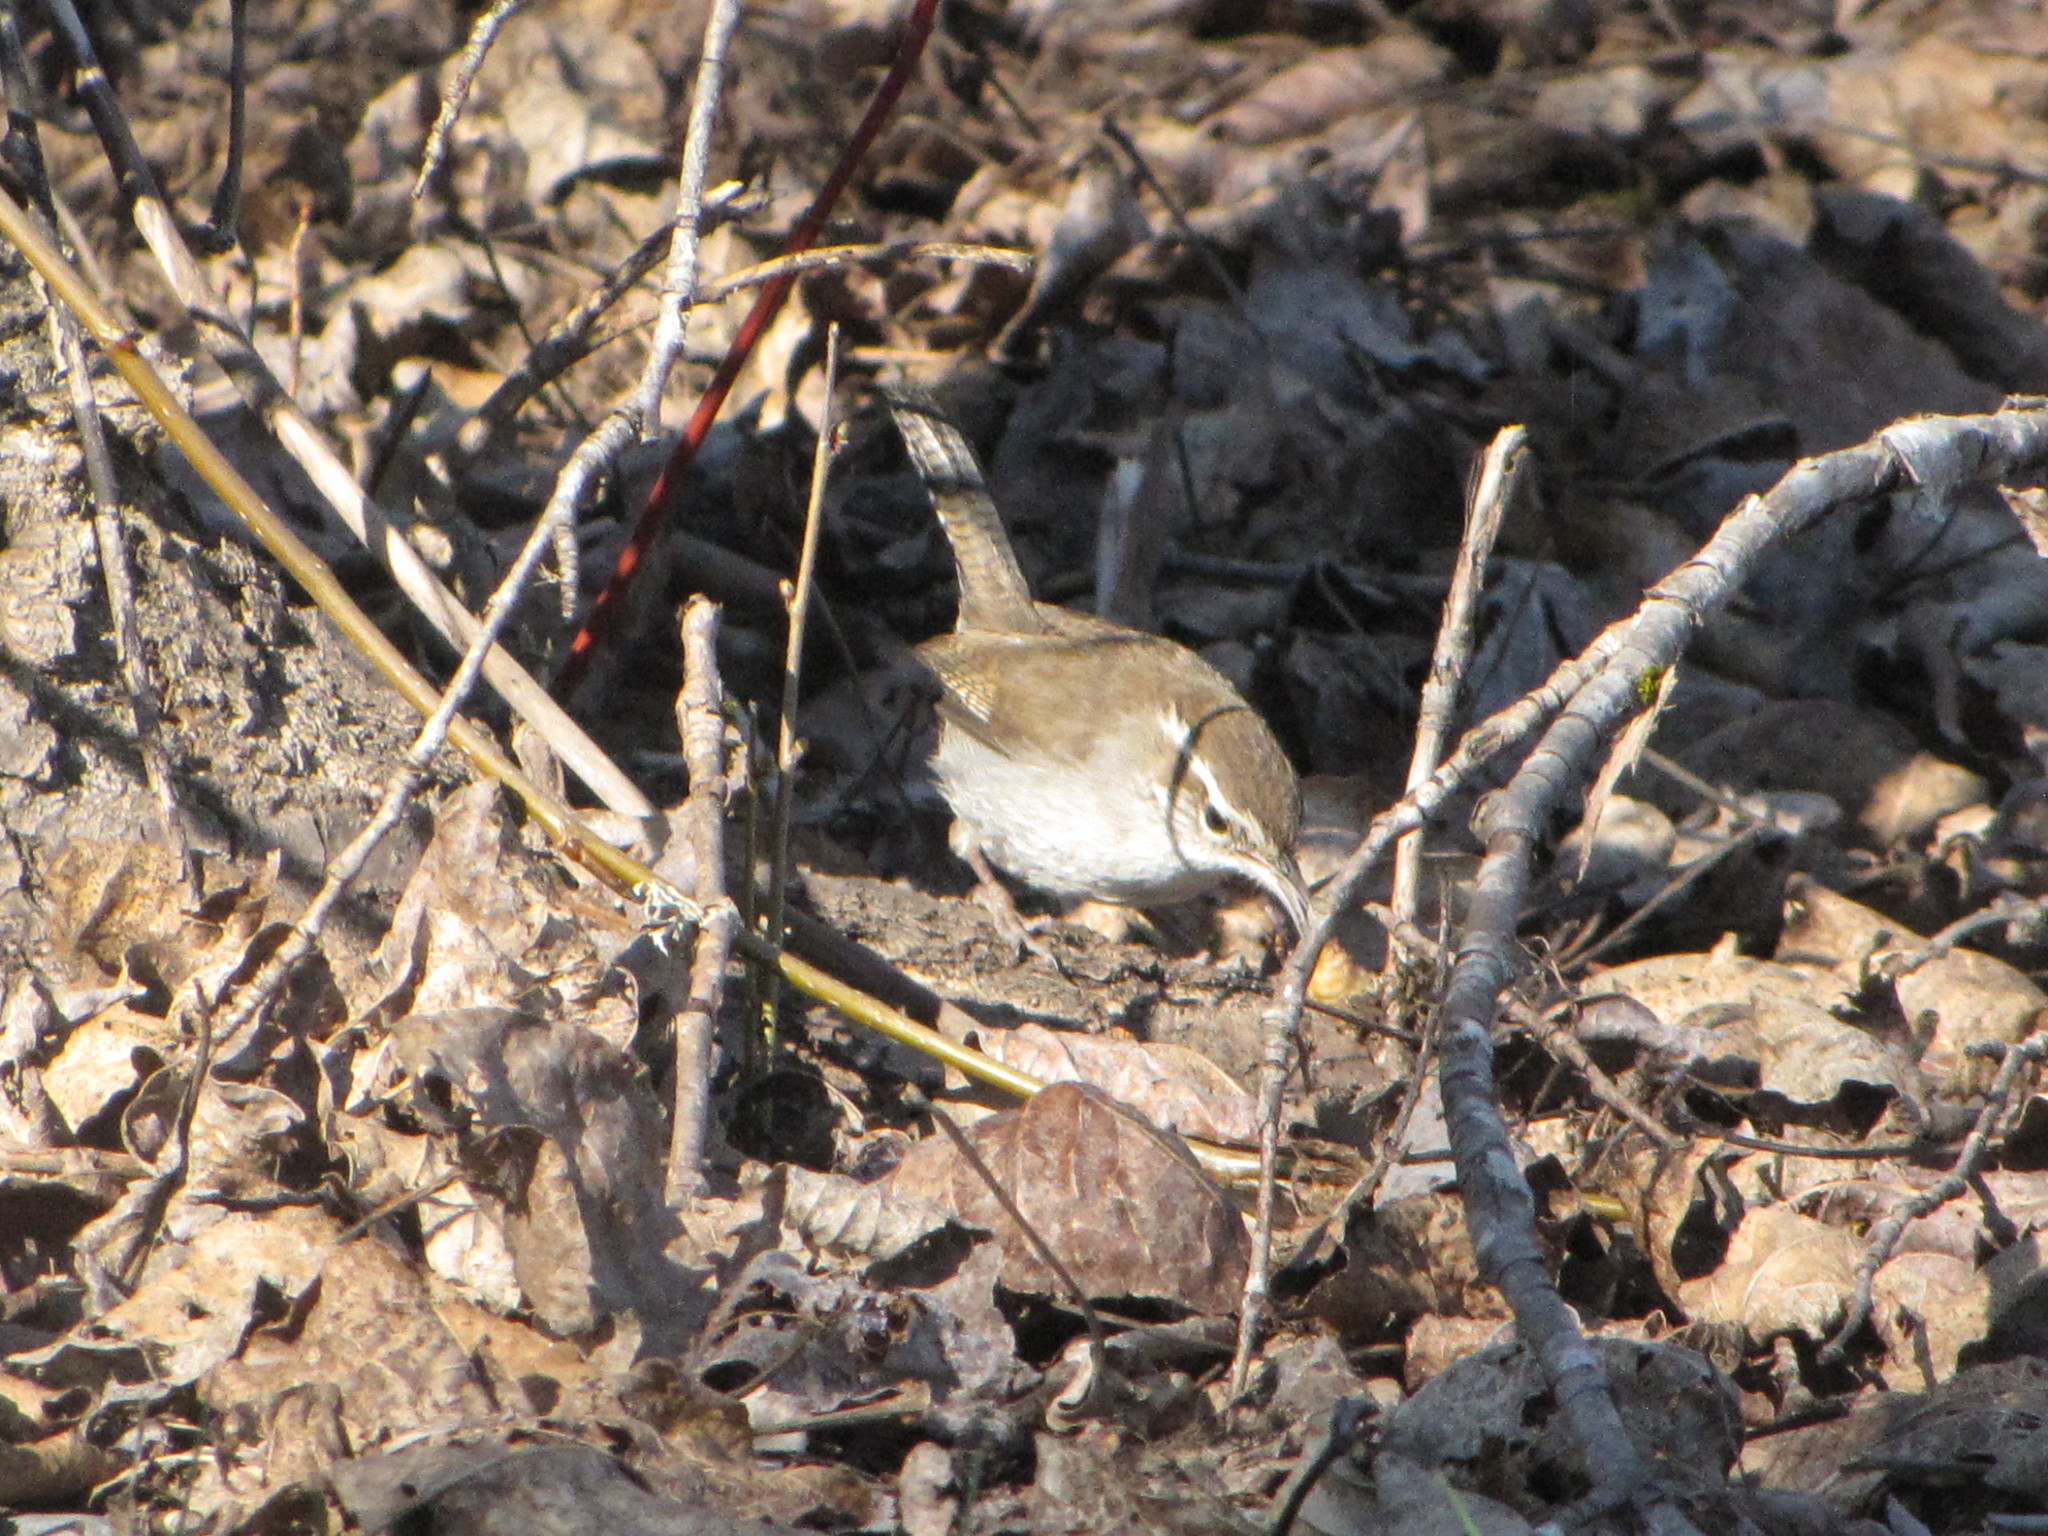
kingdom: Animalia
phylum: Chordata
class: Aves
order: Passeriformes
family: Troglodytidae
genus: Thryomanes
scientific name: Thryomanes bewickii
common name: Bewick's wren
